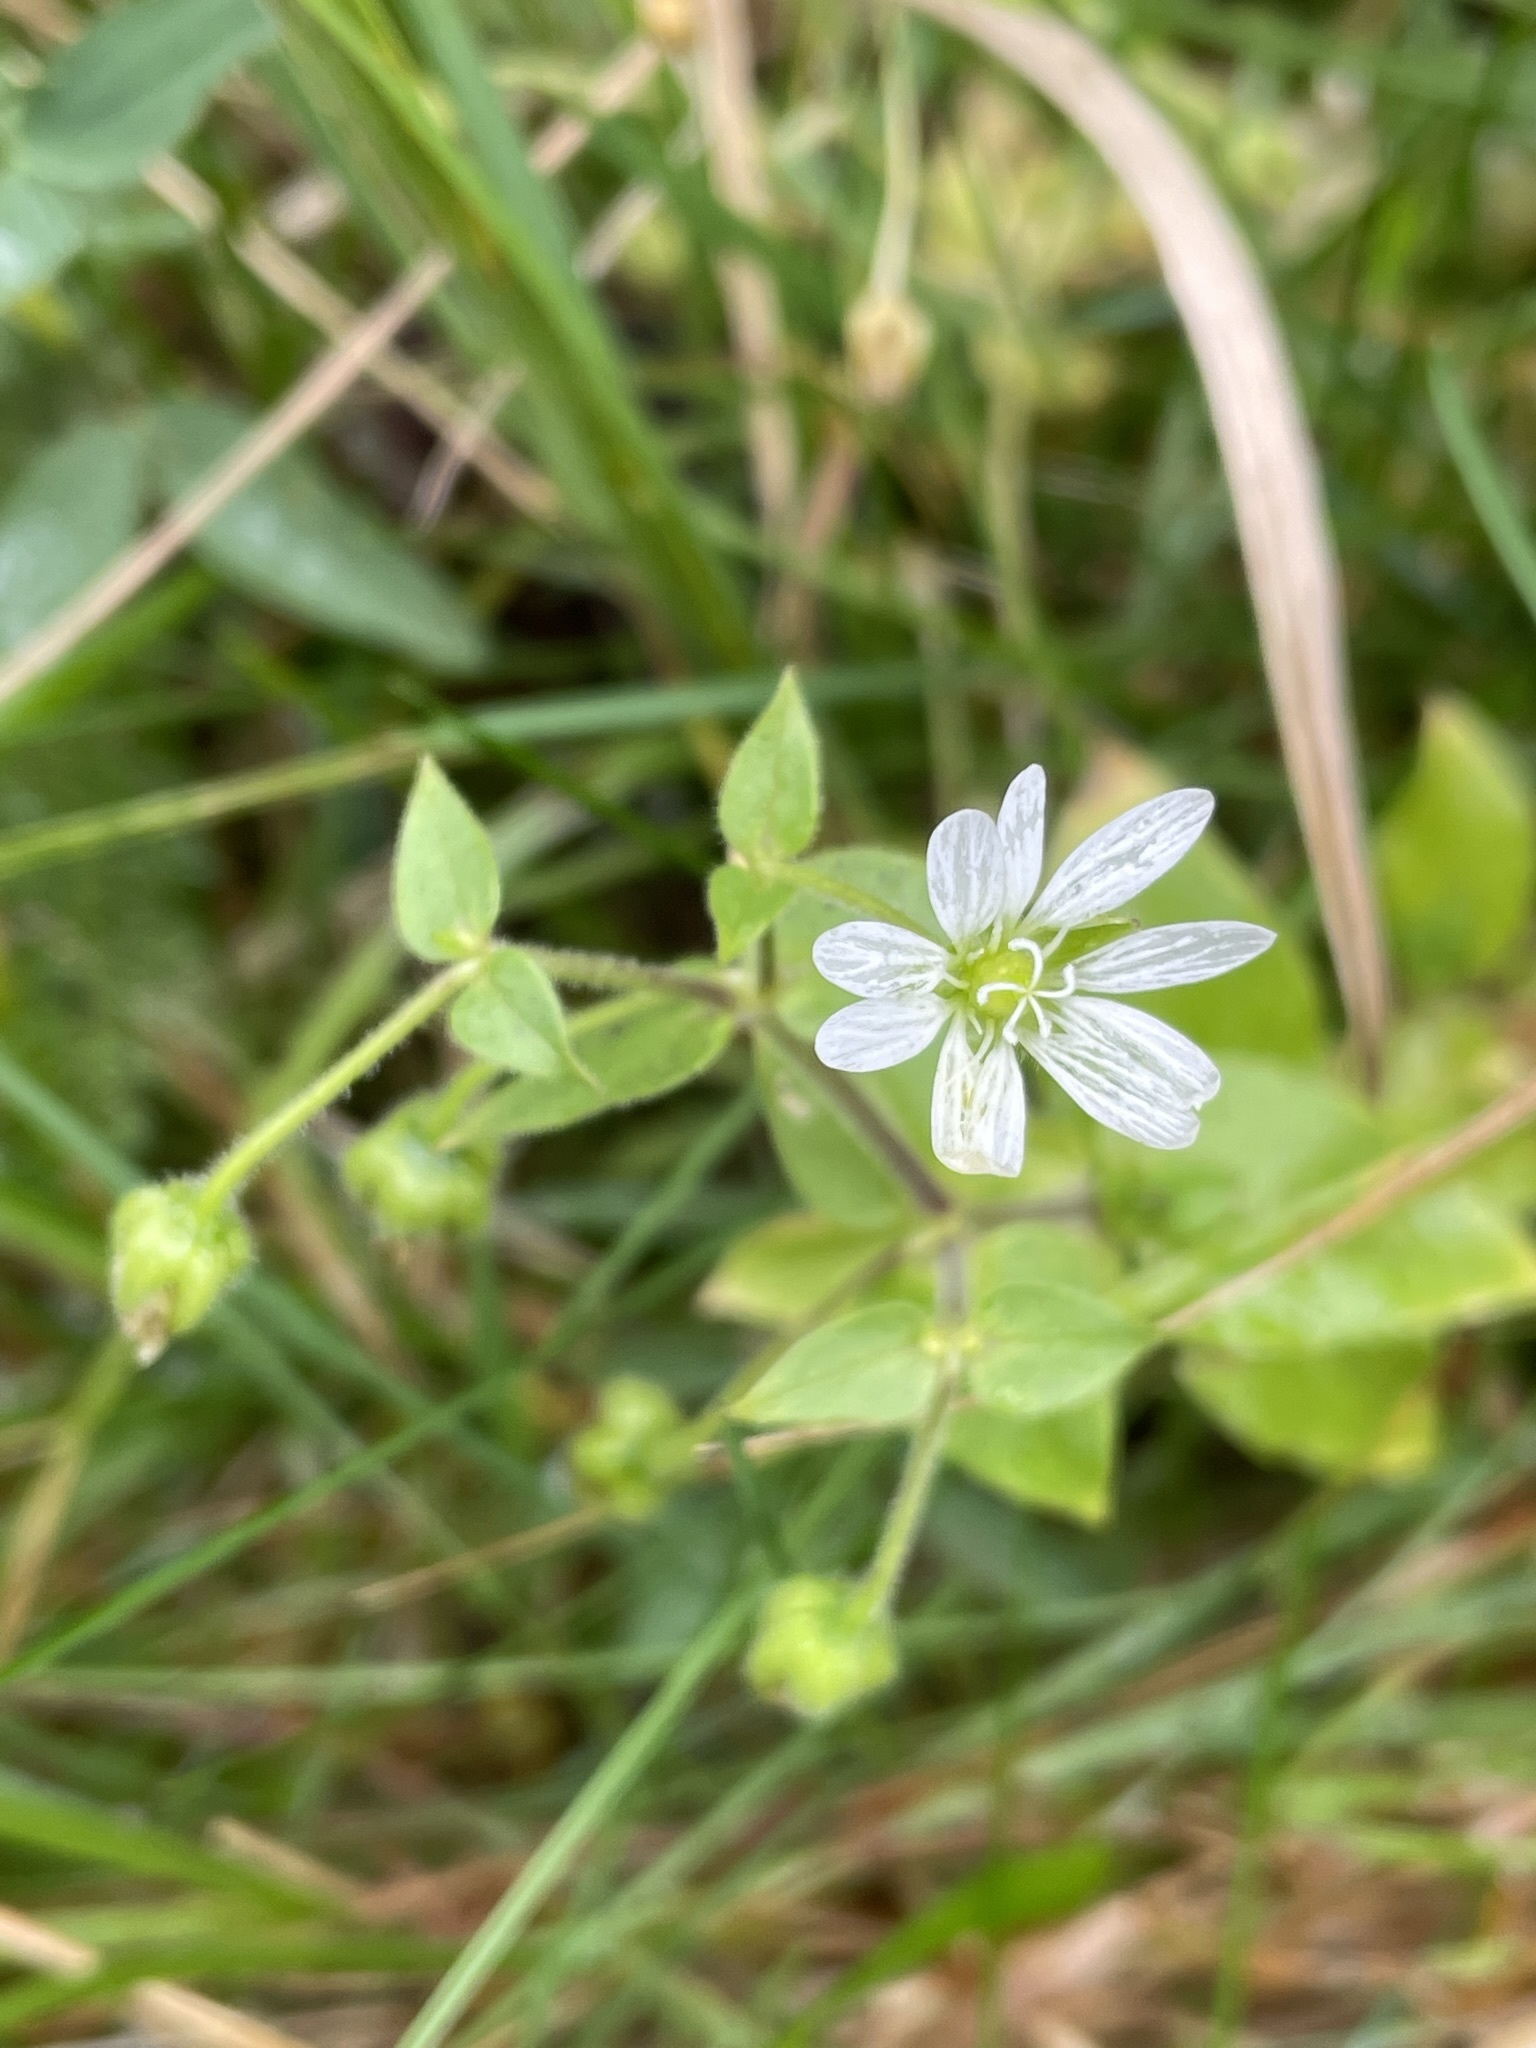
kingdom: Plantae
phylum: Tracheophyta
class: Magnoliopsida
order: Caryophyllales
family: Caryophyllaceae
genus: Stellaria
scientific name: Stellaria aquatica
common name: Water chickweed
